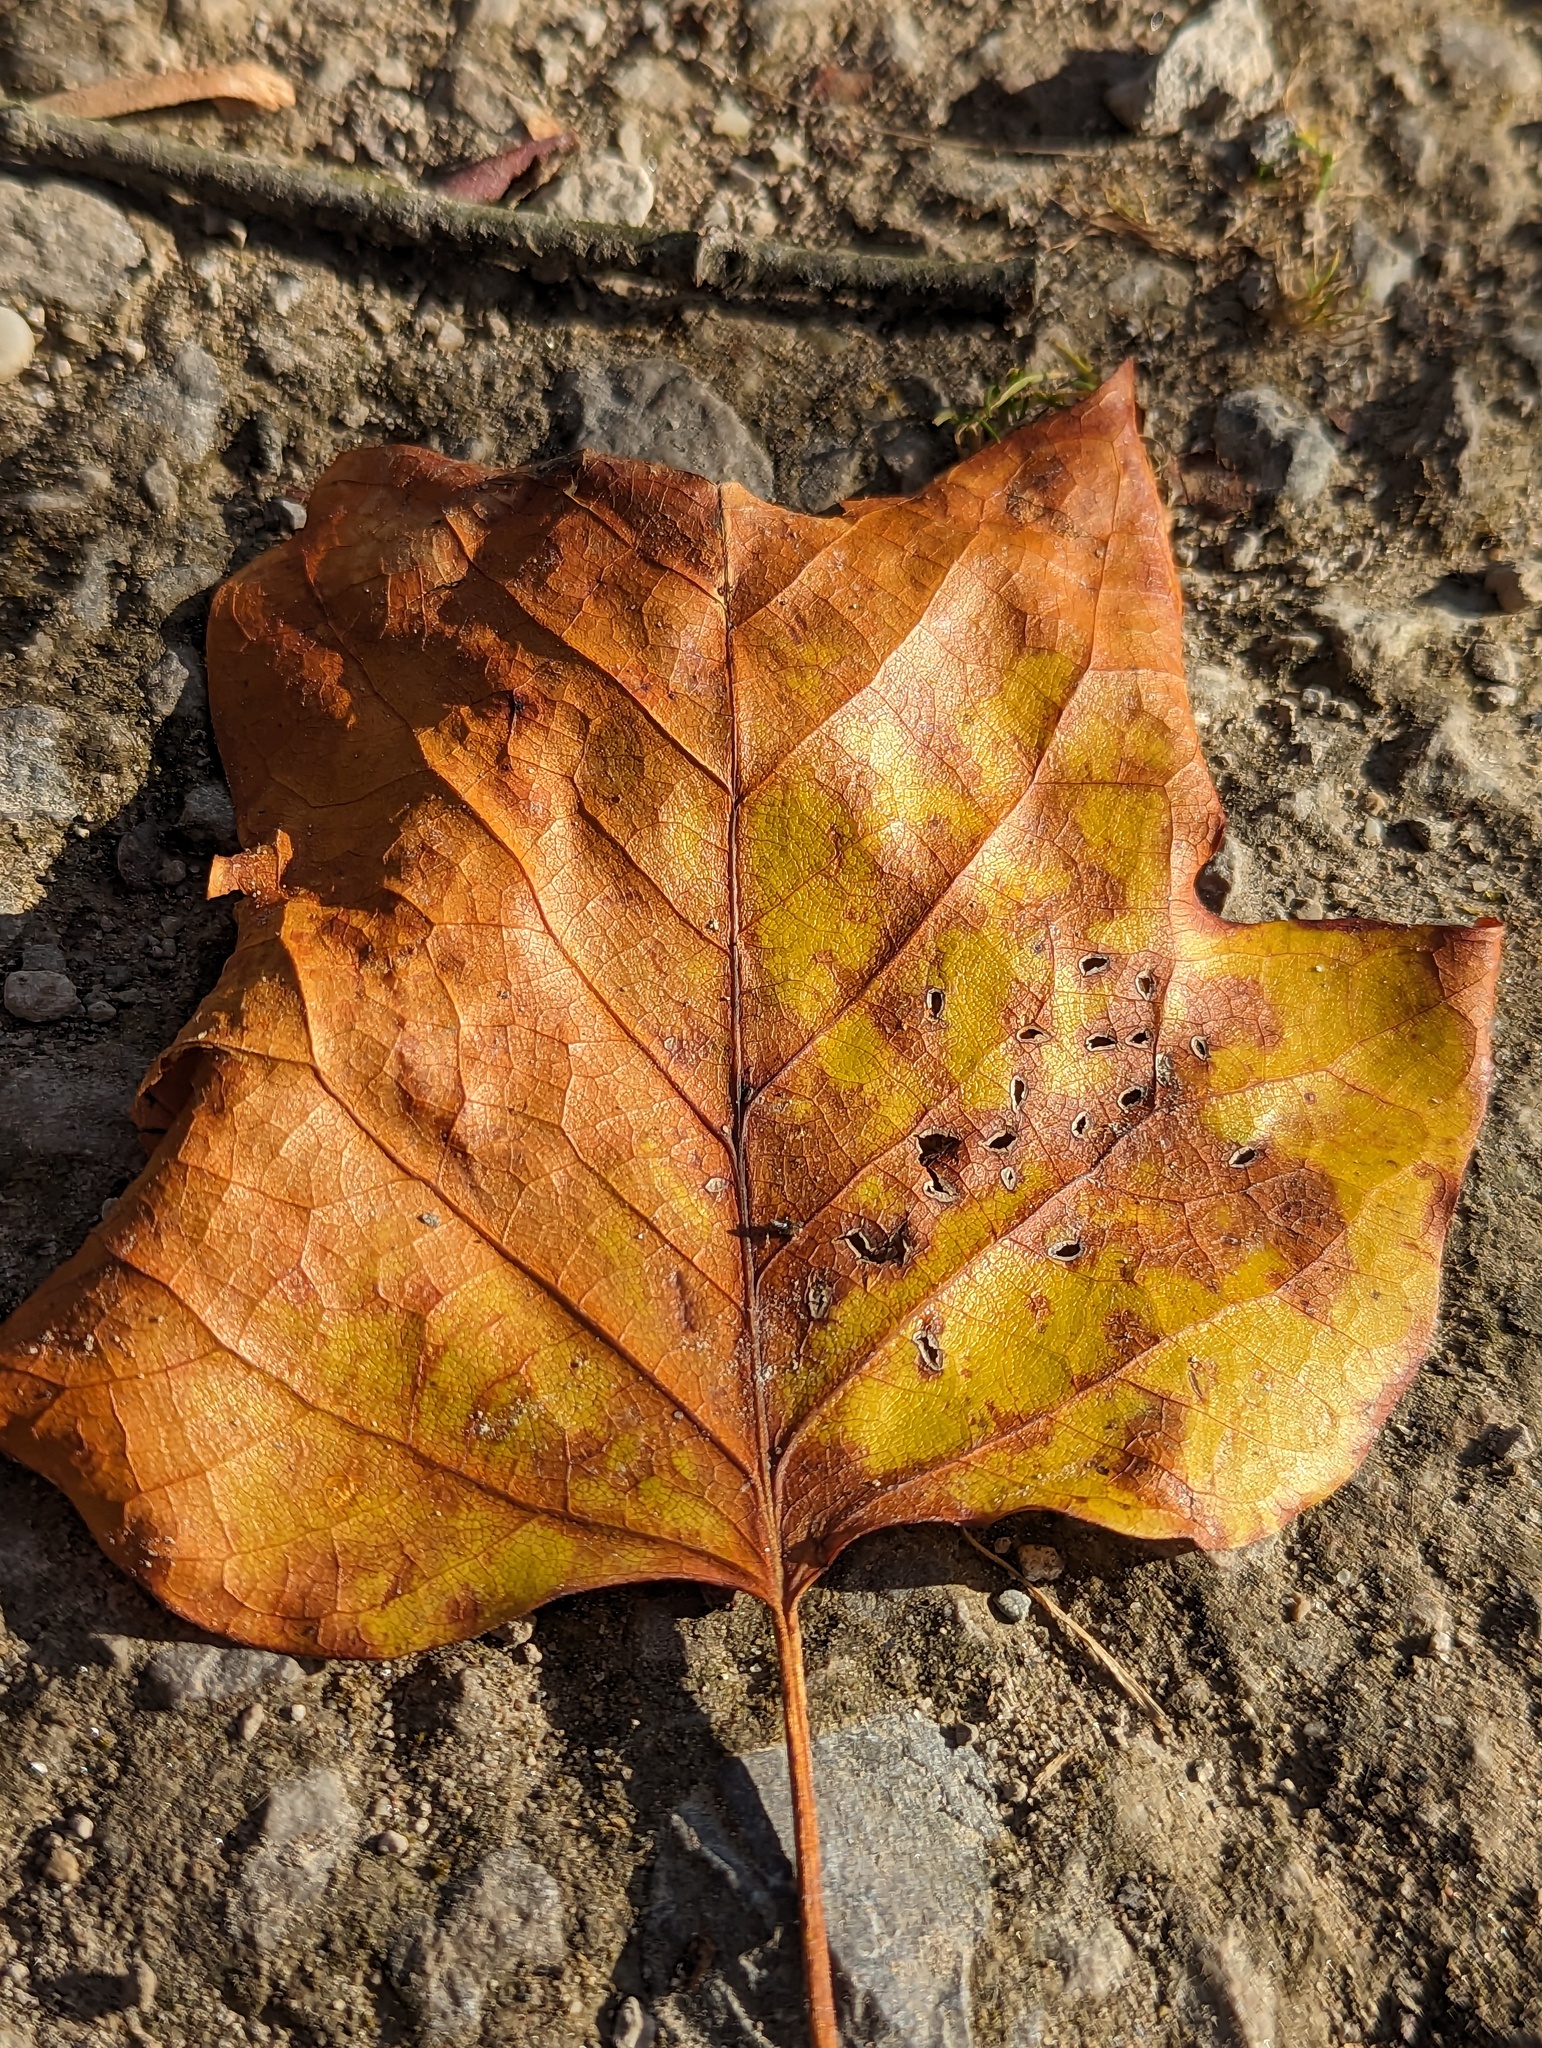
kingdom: Plantae
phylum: Tracheophyta
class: Magnoliopsida
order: Magnoliales
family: Magnoliaceae
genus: Liriodendron
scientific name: Liriodendron tulipifera
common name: Tulip tree
